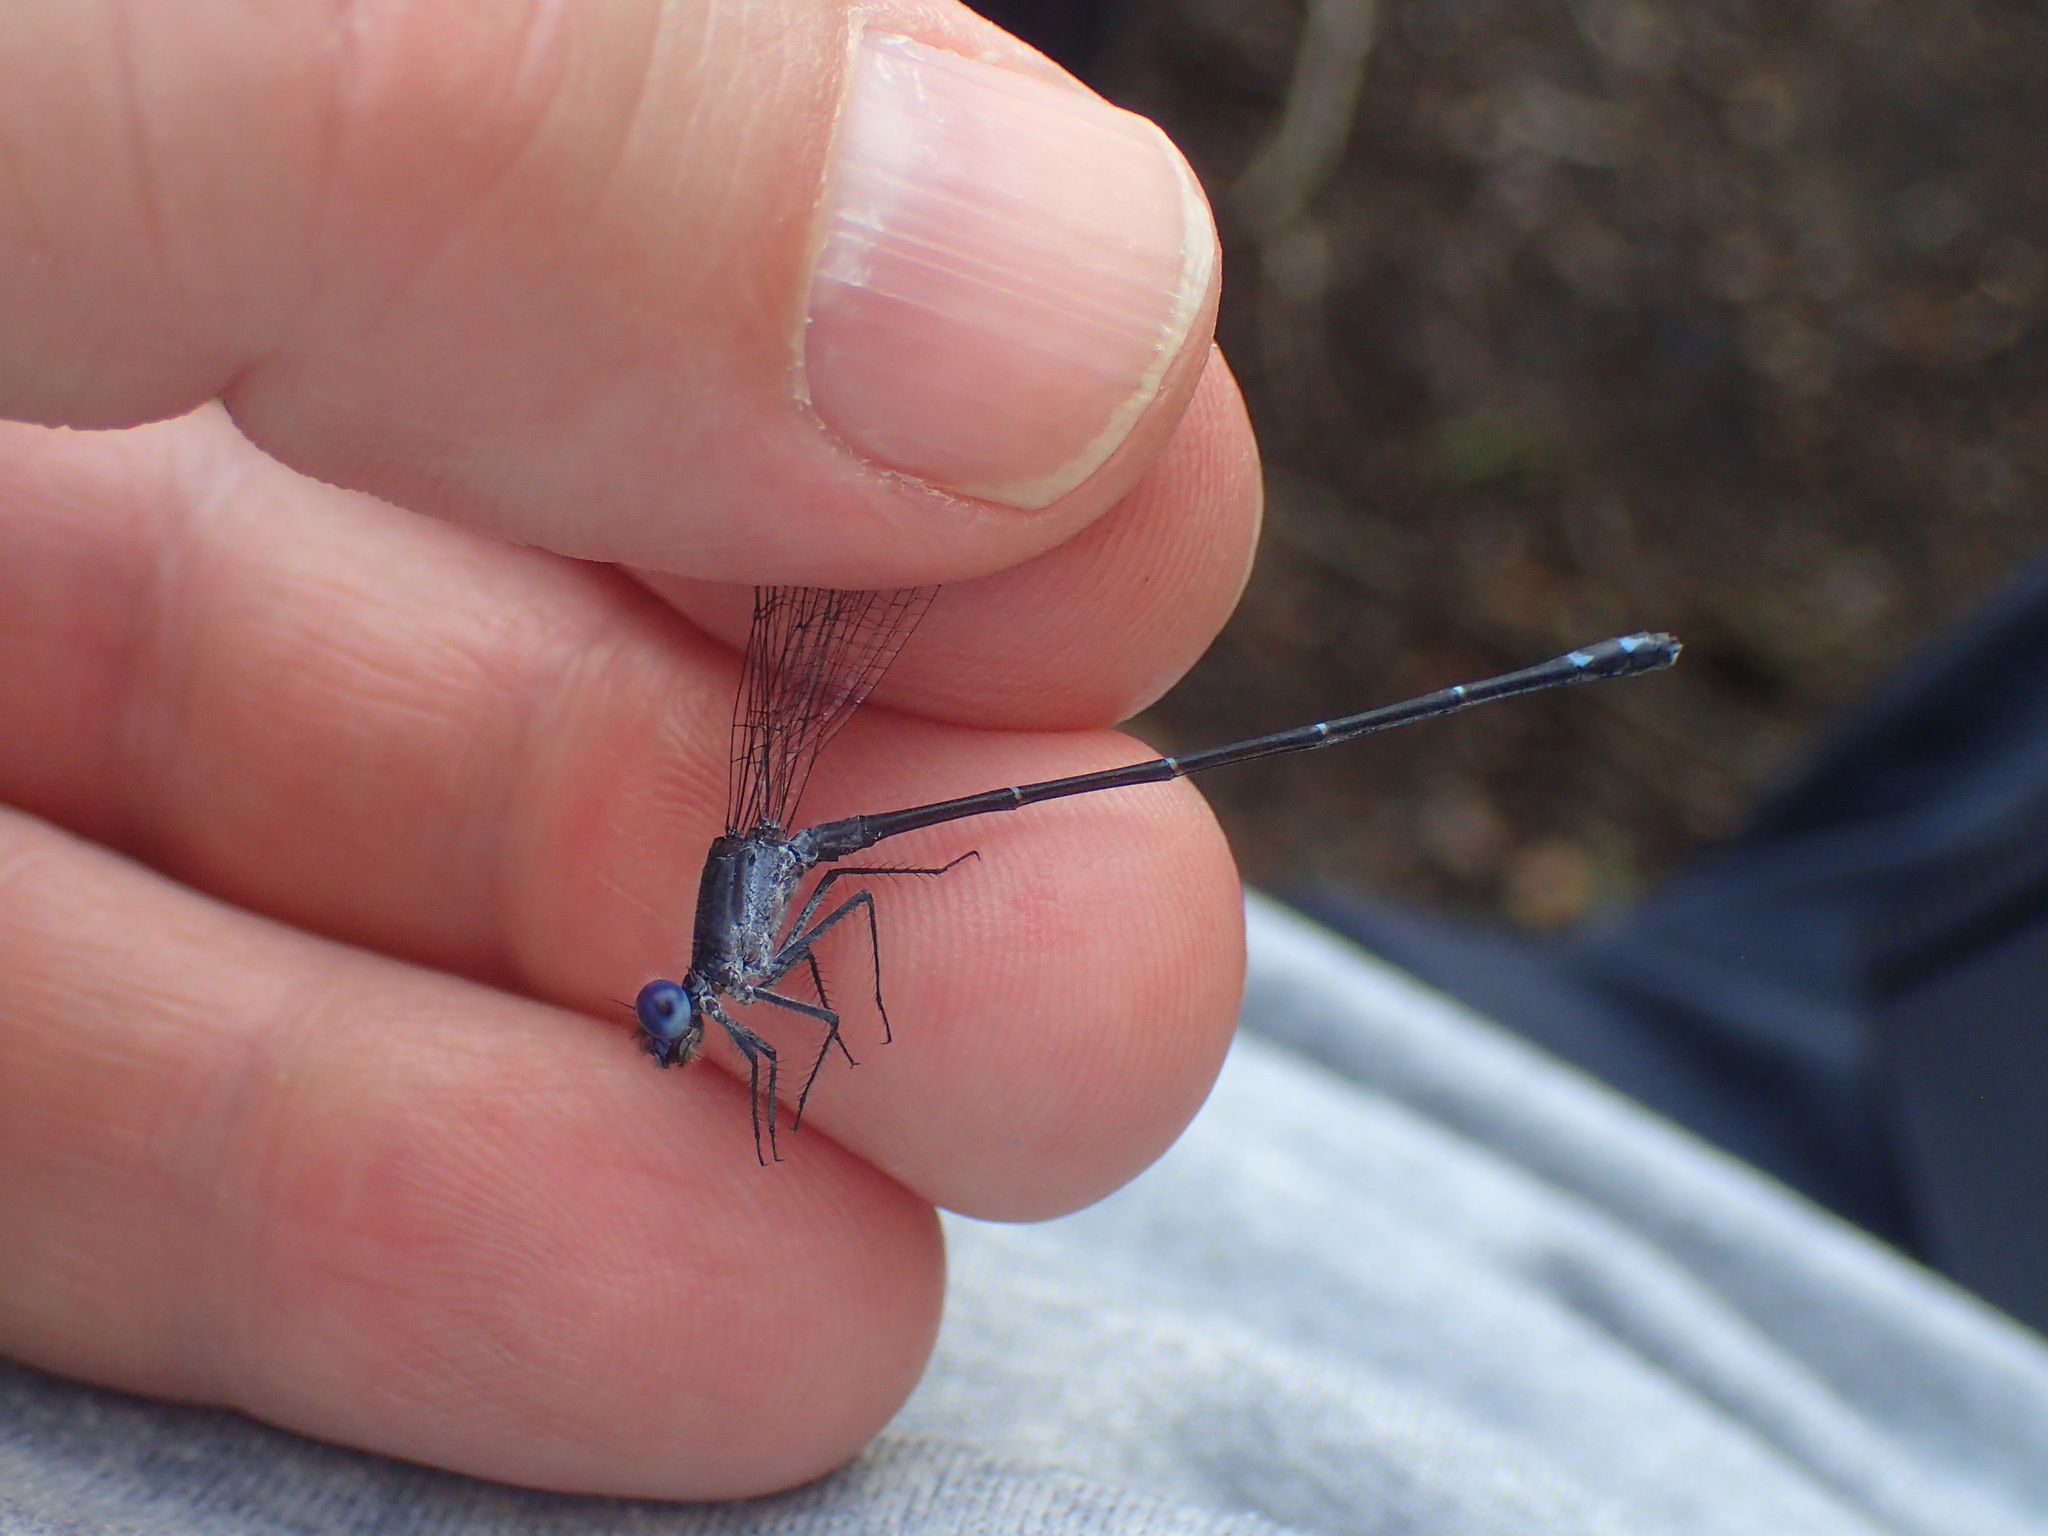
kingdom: Animalia
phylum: Arthropoda
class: Insecta
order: Odonata
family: Coenagrionidae
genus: Argia
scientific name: Argia translata
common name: Dusky dancer
